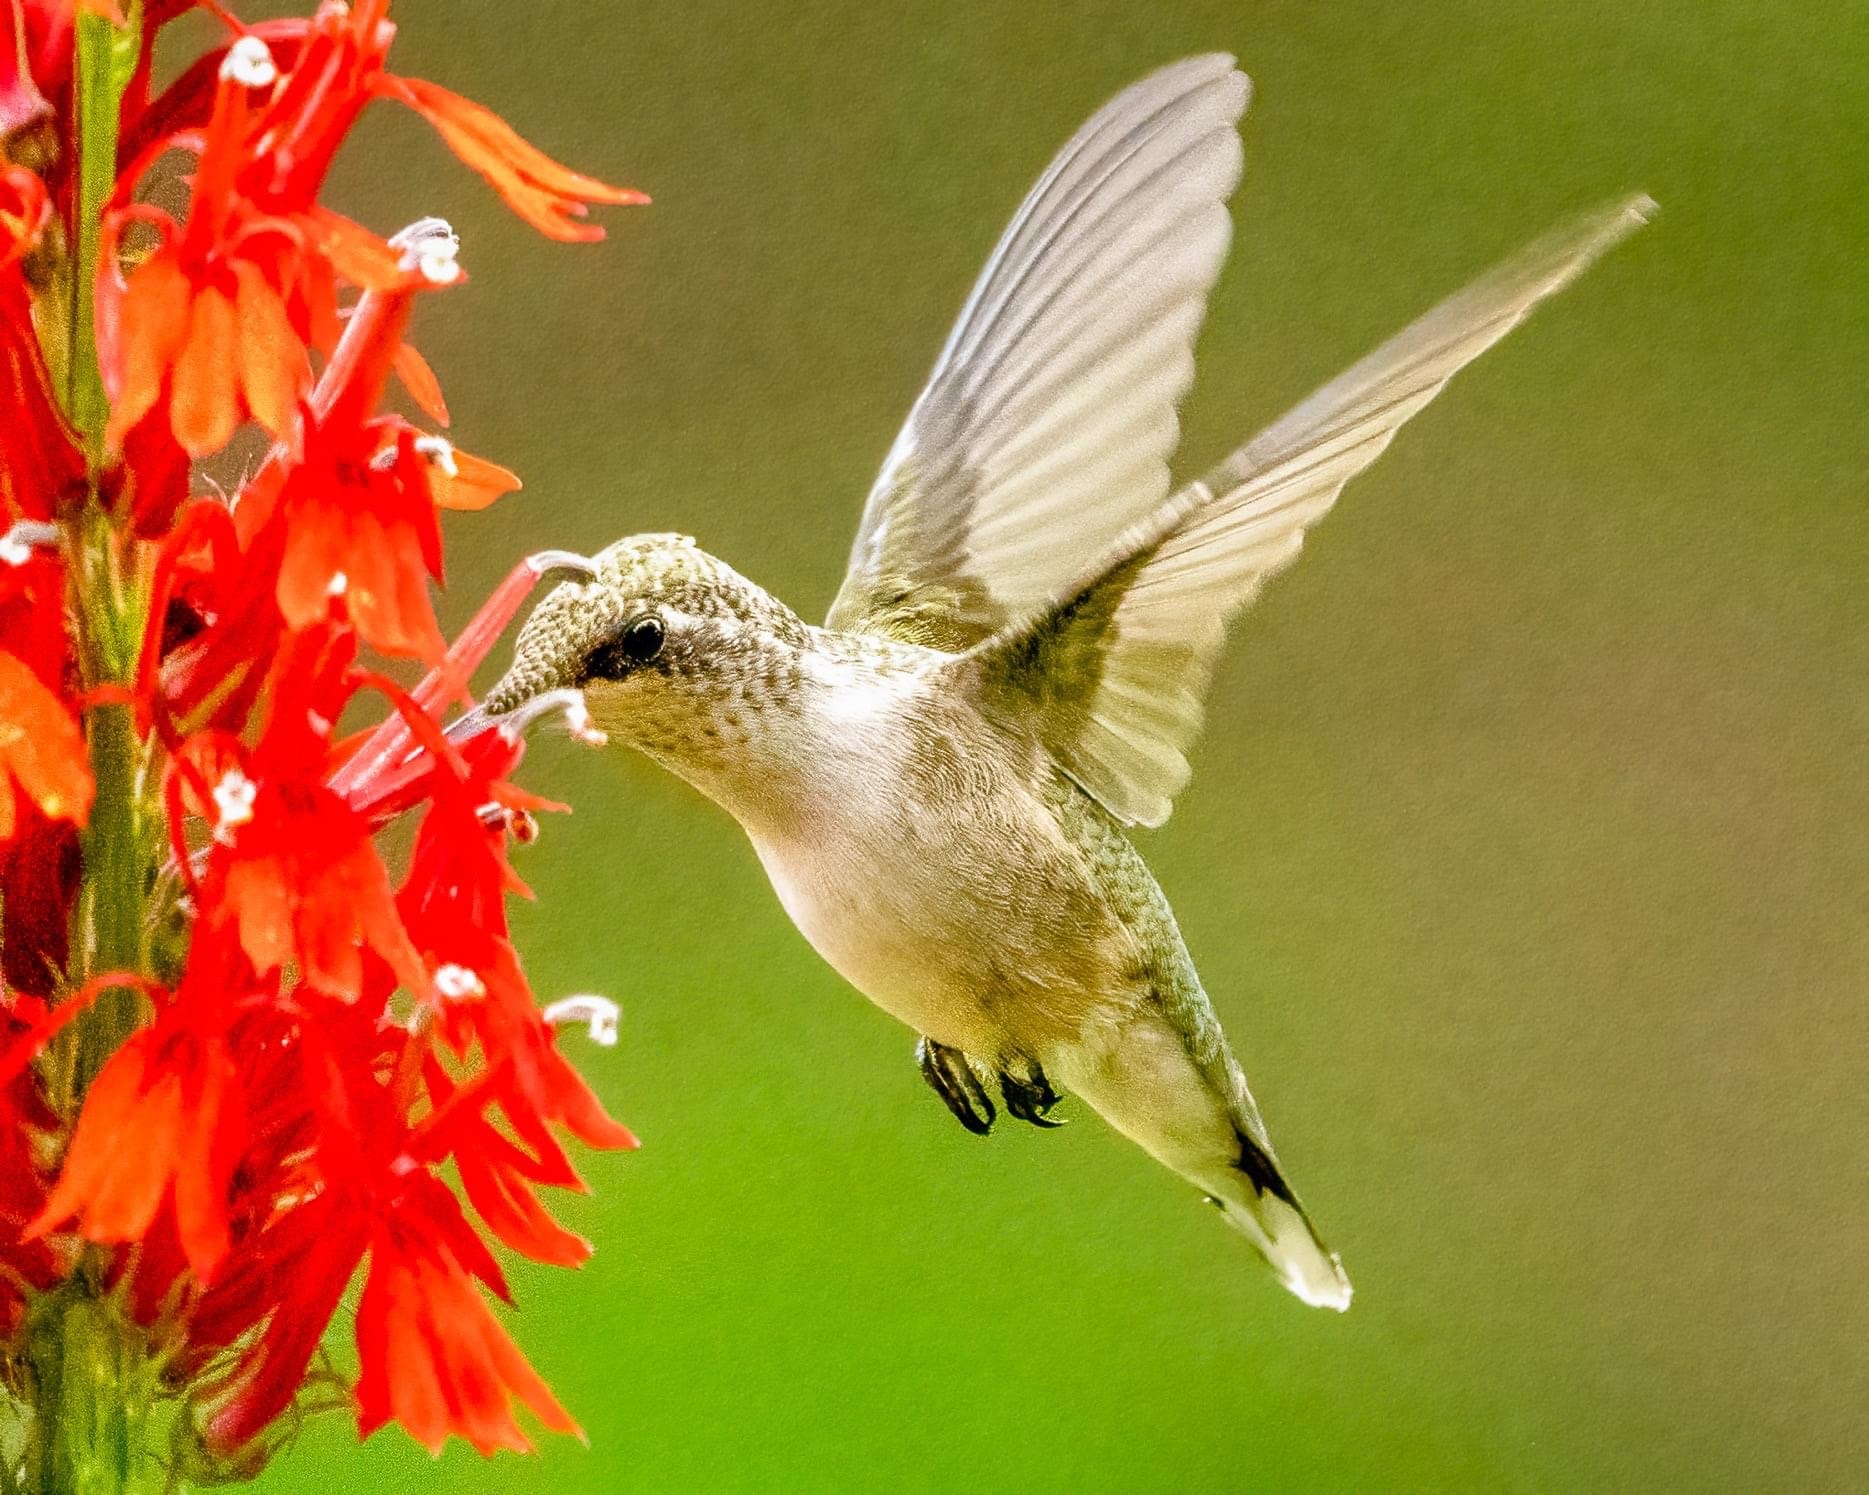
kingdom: Animalia
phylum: Chordata
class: Aves
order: Apodiformes
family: Trochilidae
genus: Archilochus
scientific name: Archilochus colubris
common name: Ruby-throated hummingbird
